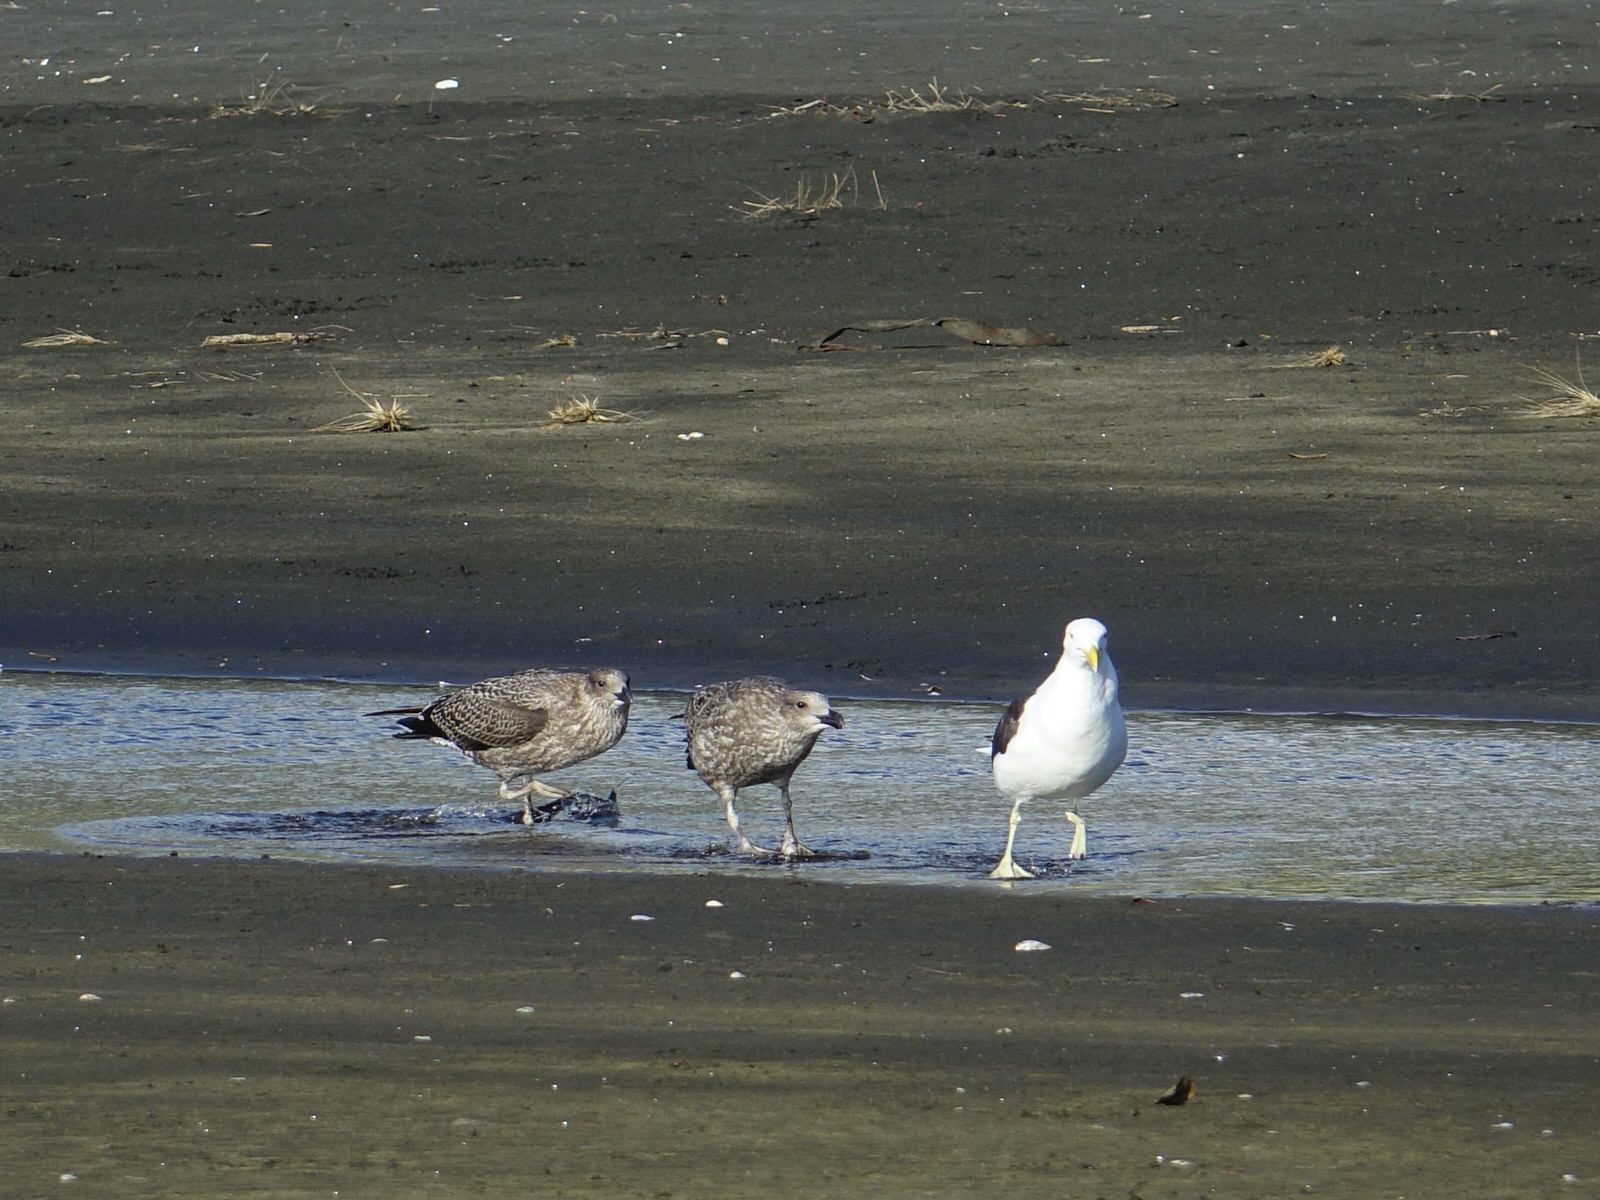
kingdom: Animalia
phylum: Chordata
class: Aves
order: Charadriiformes
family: Laridae
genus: Larus
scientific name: Larus dominicanus
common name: Kelp gull
